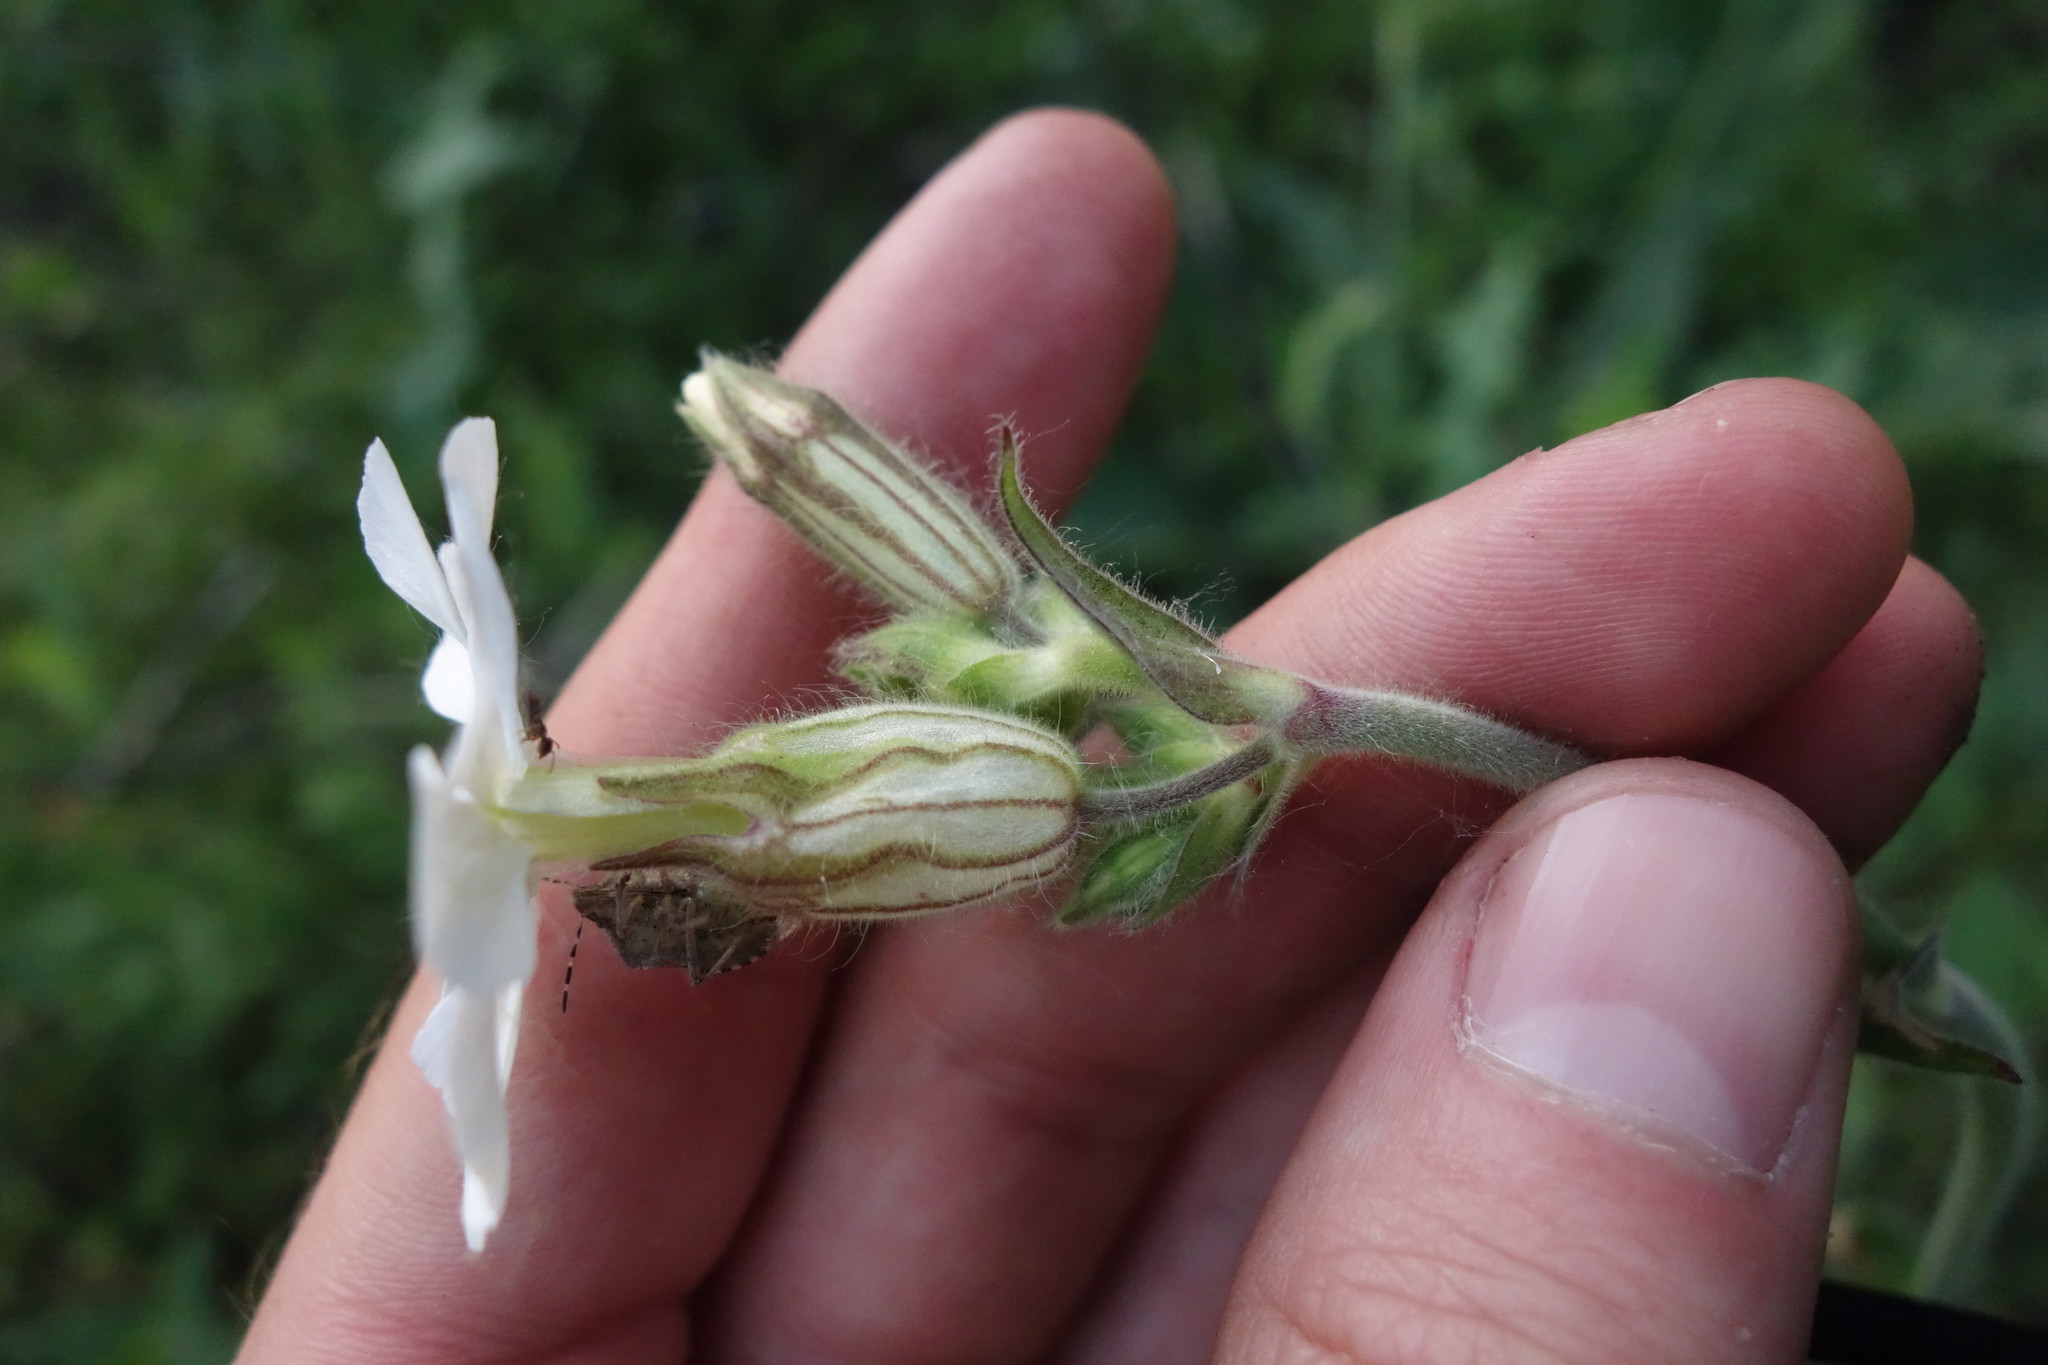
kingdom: Plantae
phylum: Tracheophyta
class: Magnoliopsida
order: Caryophyllales
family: Caryophyllaceae
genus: Silene
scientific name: Silene latifolia
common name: White campion
